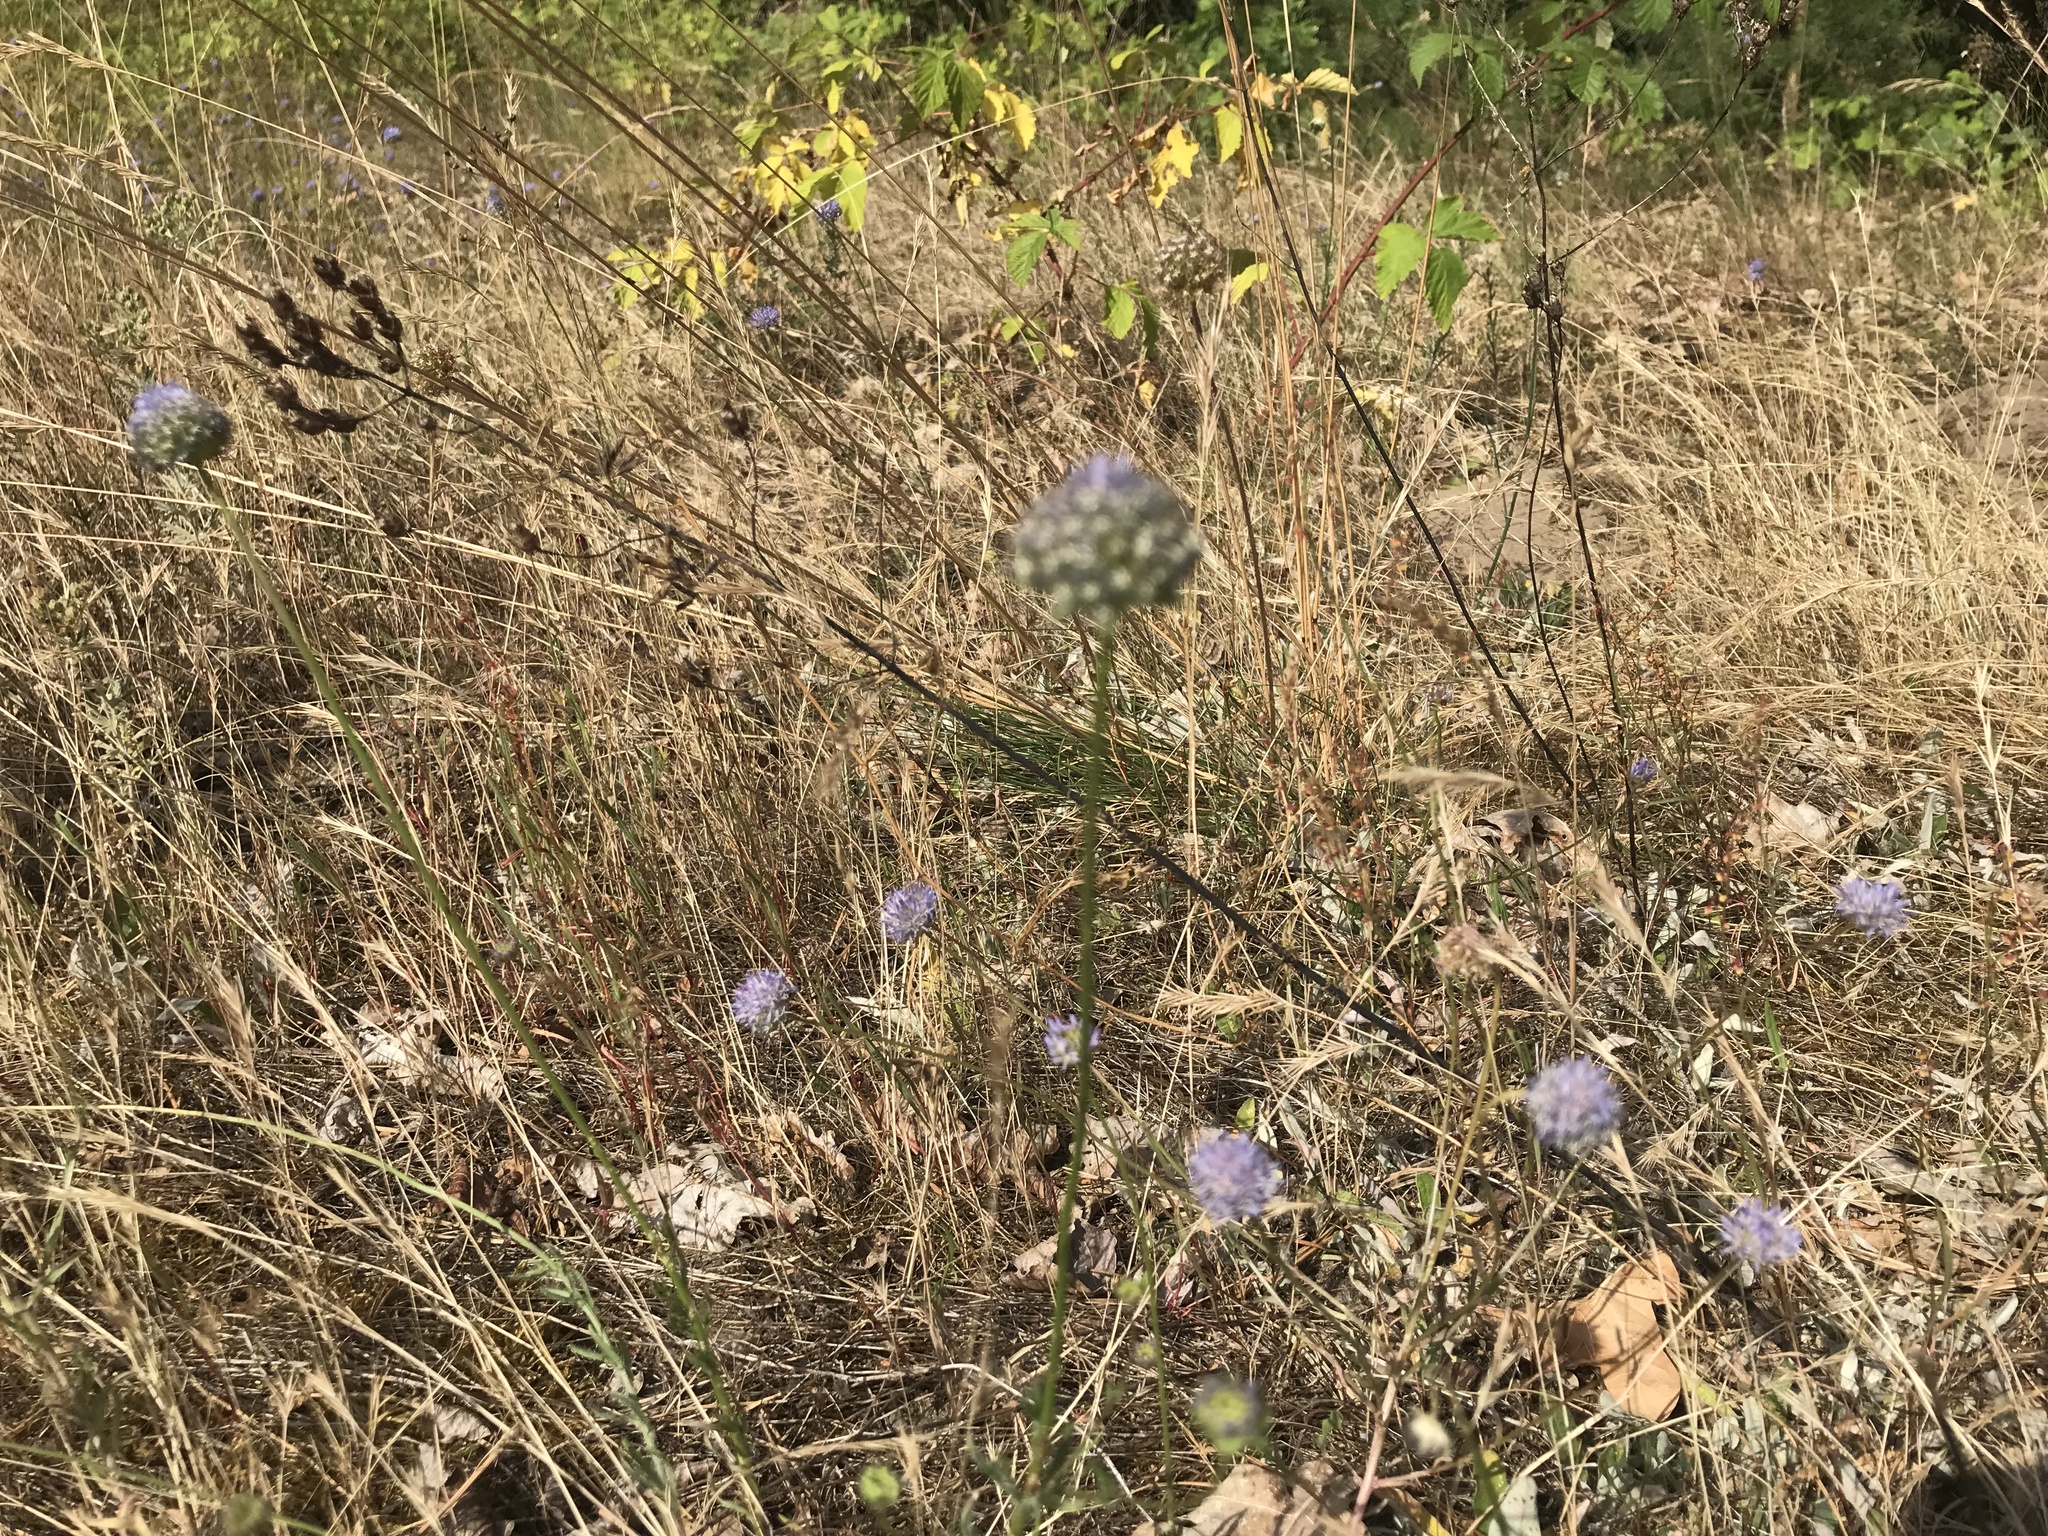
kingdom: Plantae
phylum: Tracheophyta
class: Magnoliopsida
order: Asterales
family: Campanulaceae
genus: Jasione
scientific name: Jasione montana
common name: Sheep's-bit
